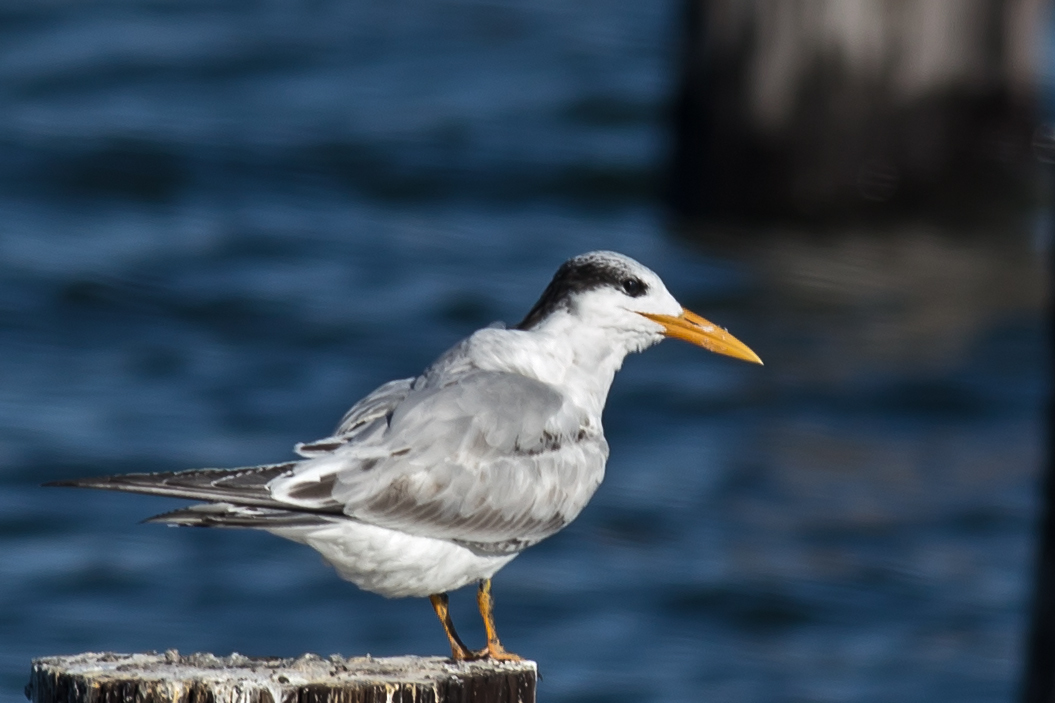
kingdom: Animalia
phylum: Chordata
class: Aves
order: Charadriiformes
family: Laridae
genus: Thalasseus
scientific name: Thalasseus maximus
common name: Royal tern
